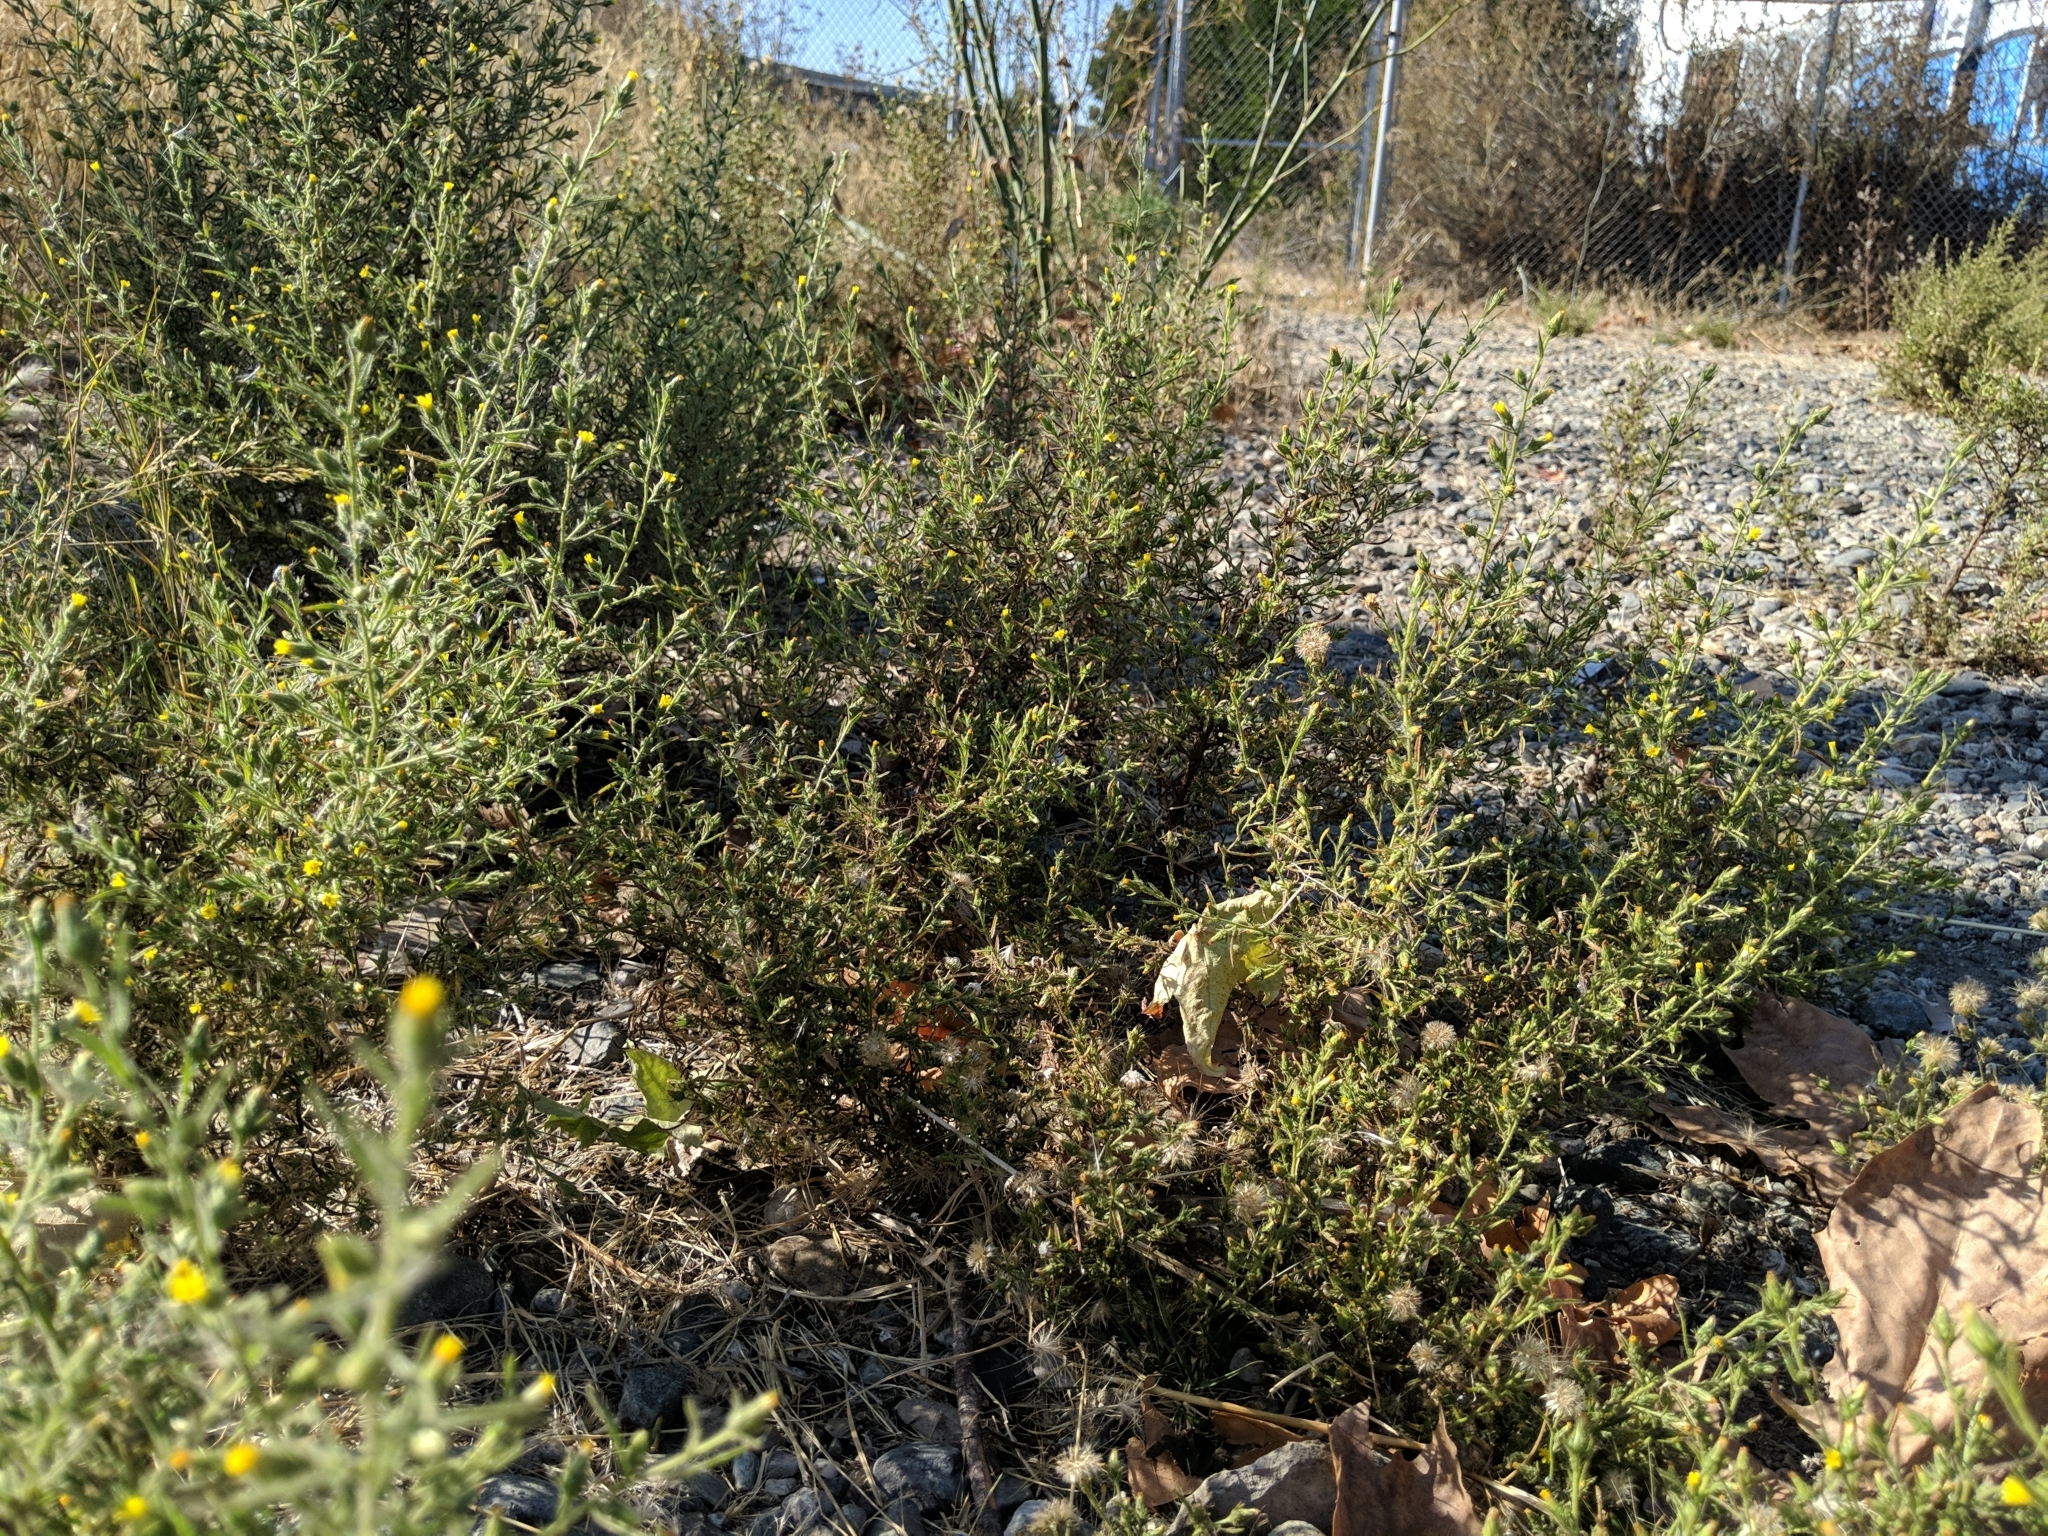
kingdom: Plantae
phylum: Tracheophyta
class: Magnoliopsida
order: Asterales
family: Asteraceae
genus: Dittrichia
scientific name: Dittrichia graveolens
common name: Stinking fleabane
